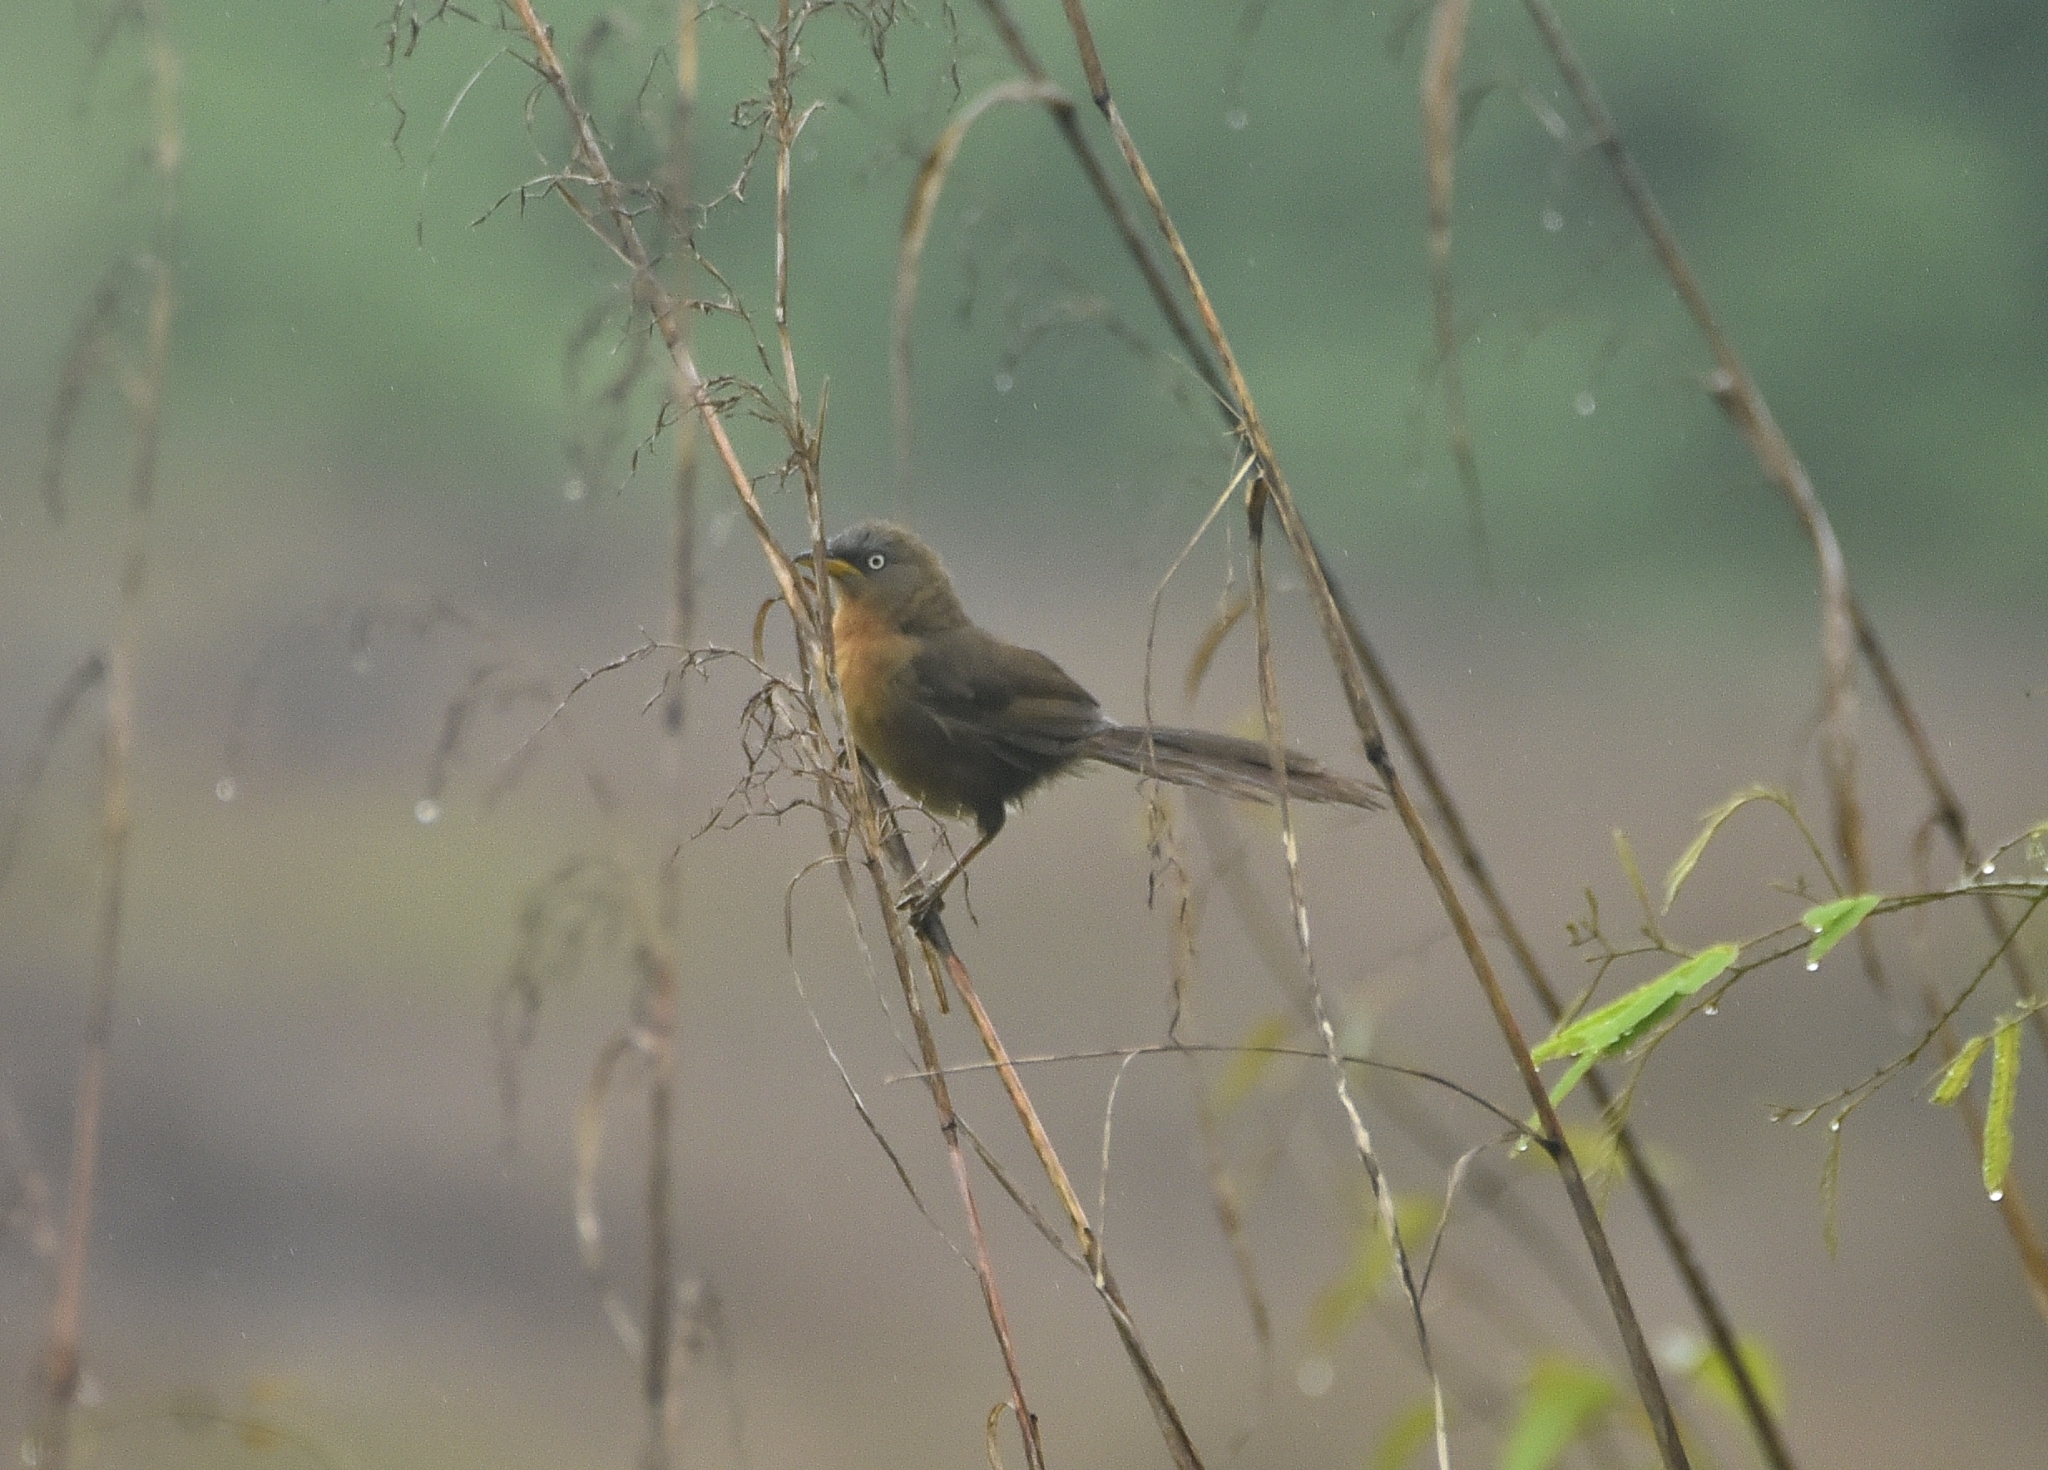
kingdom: Animalia
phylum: Chordata
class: Aves
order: Passeriformes
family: Leiothrichidae
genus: Turdoides
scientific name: Turdoides subrufa
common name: Rufous babbler
